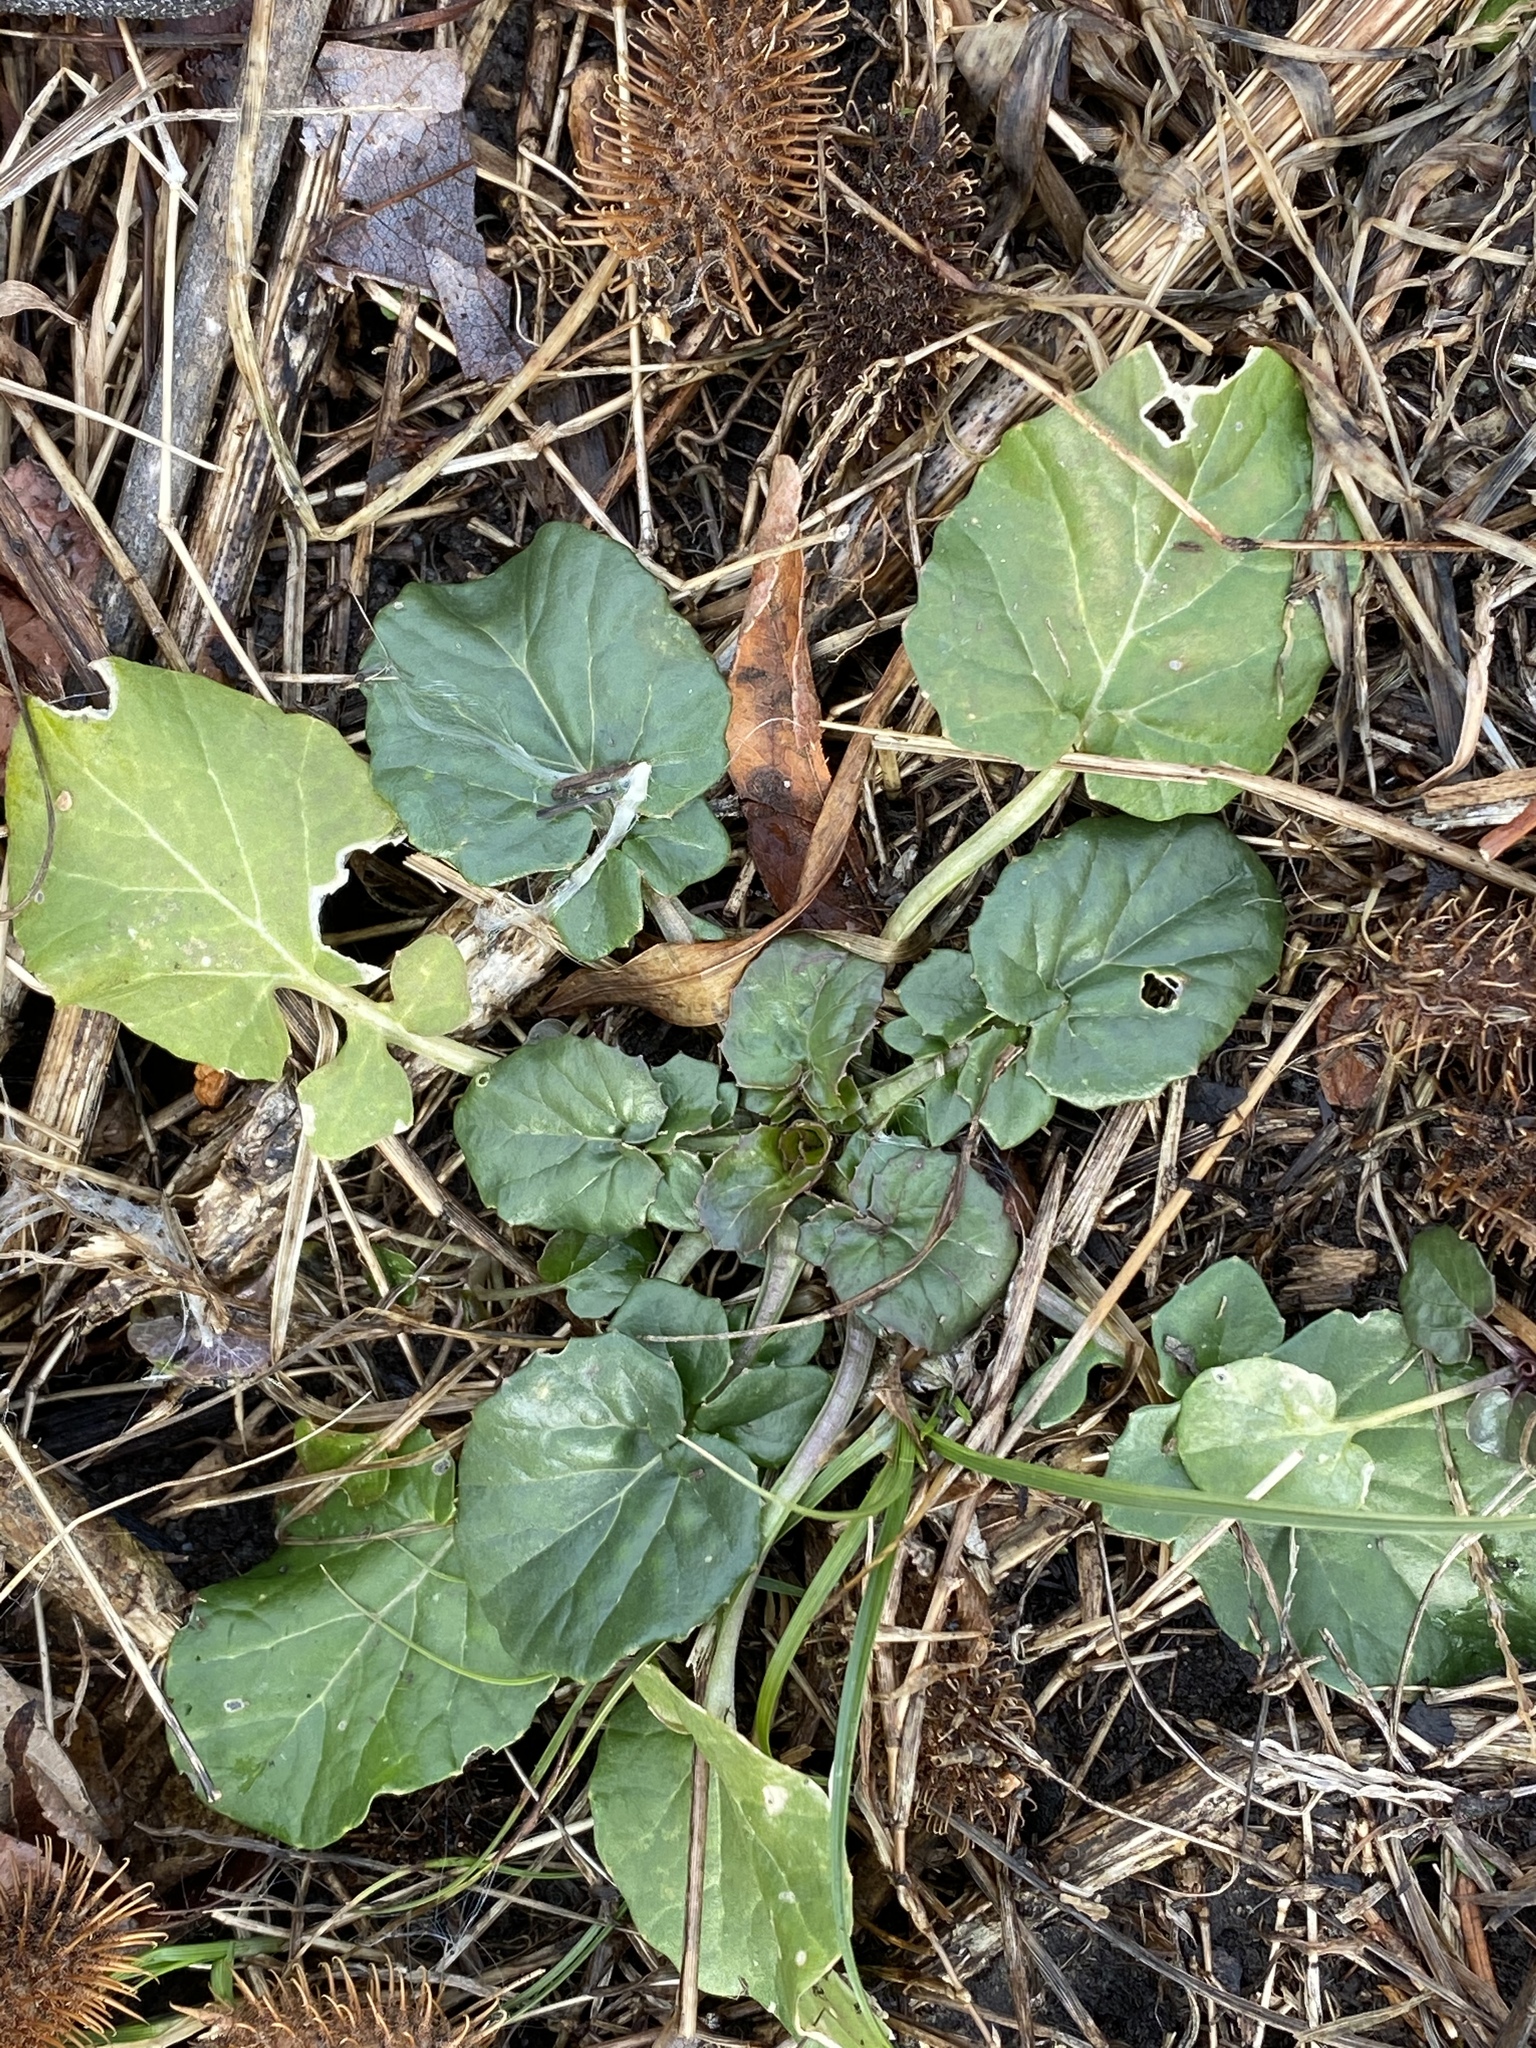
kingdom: Plantae
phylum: Tracheophyta
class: Magnoliopsida
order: Brassicales
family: Brassicaceae
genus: Barbarea
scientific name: Barbarea vulgaris
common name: Cressy-greens
